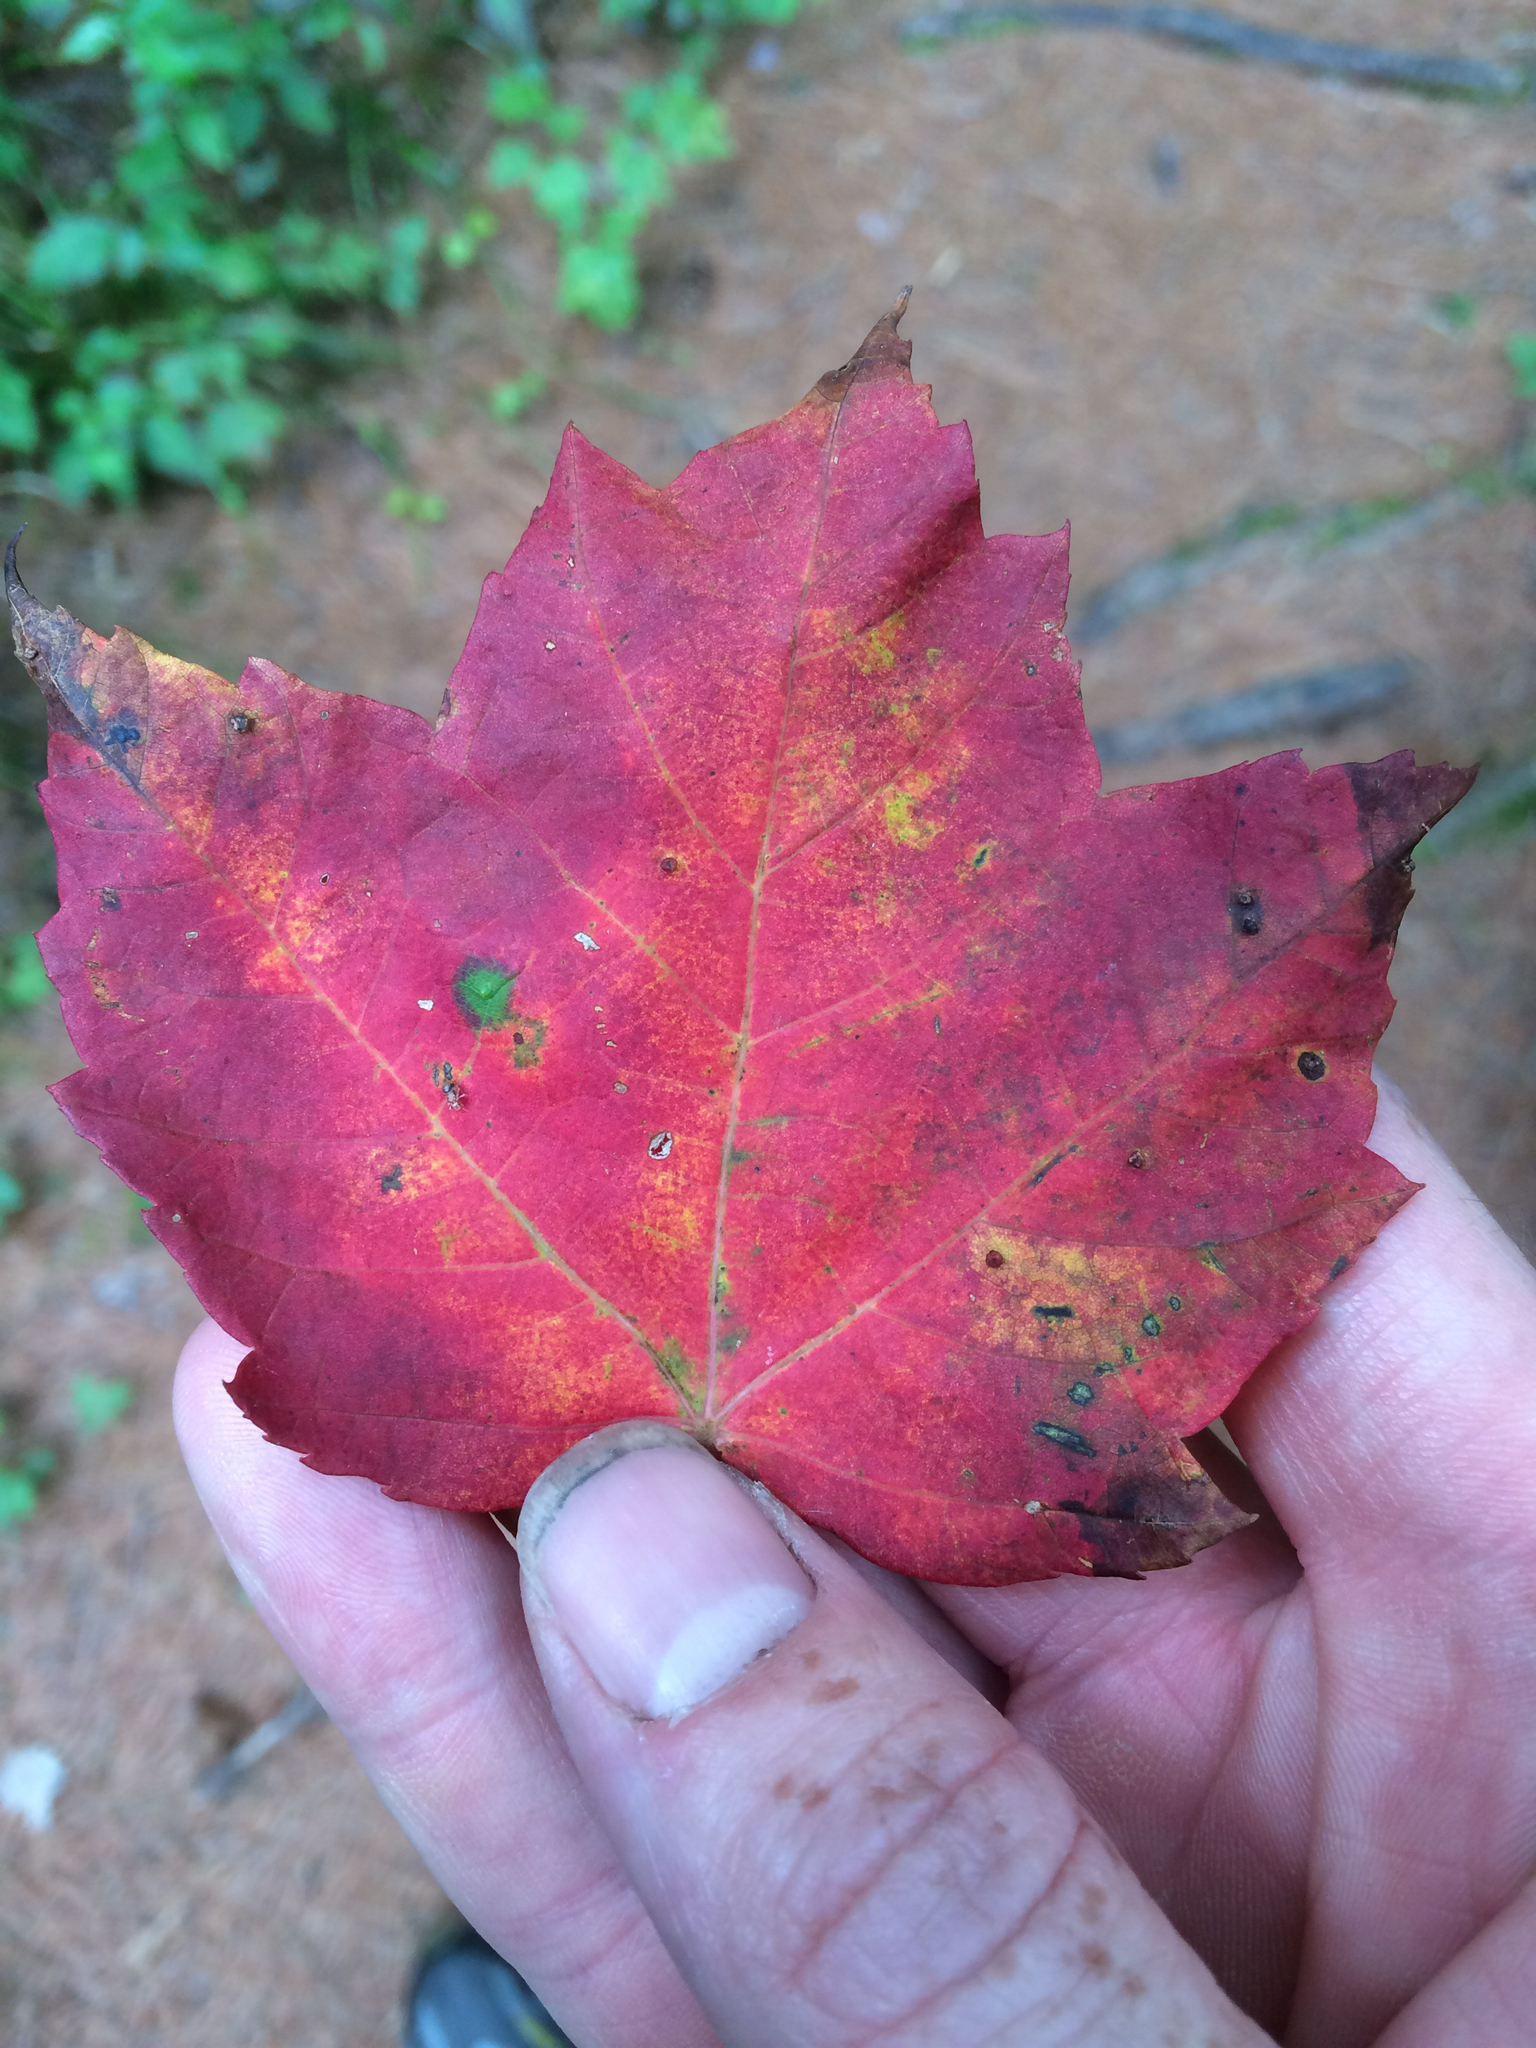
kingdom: Plantae
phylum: Tracheophyta
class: Magnoliopsida
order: Sapindales
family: Sapindaceae
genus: Acer
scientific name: Acer rubrum
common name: Red maple
